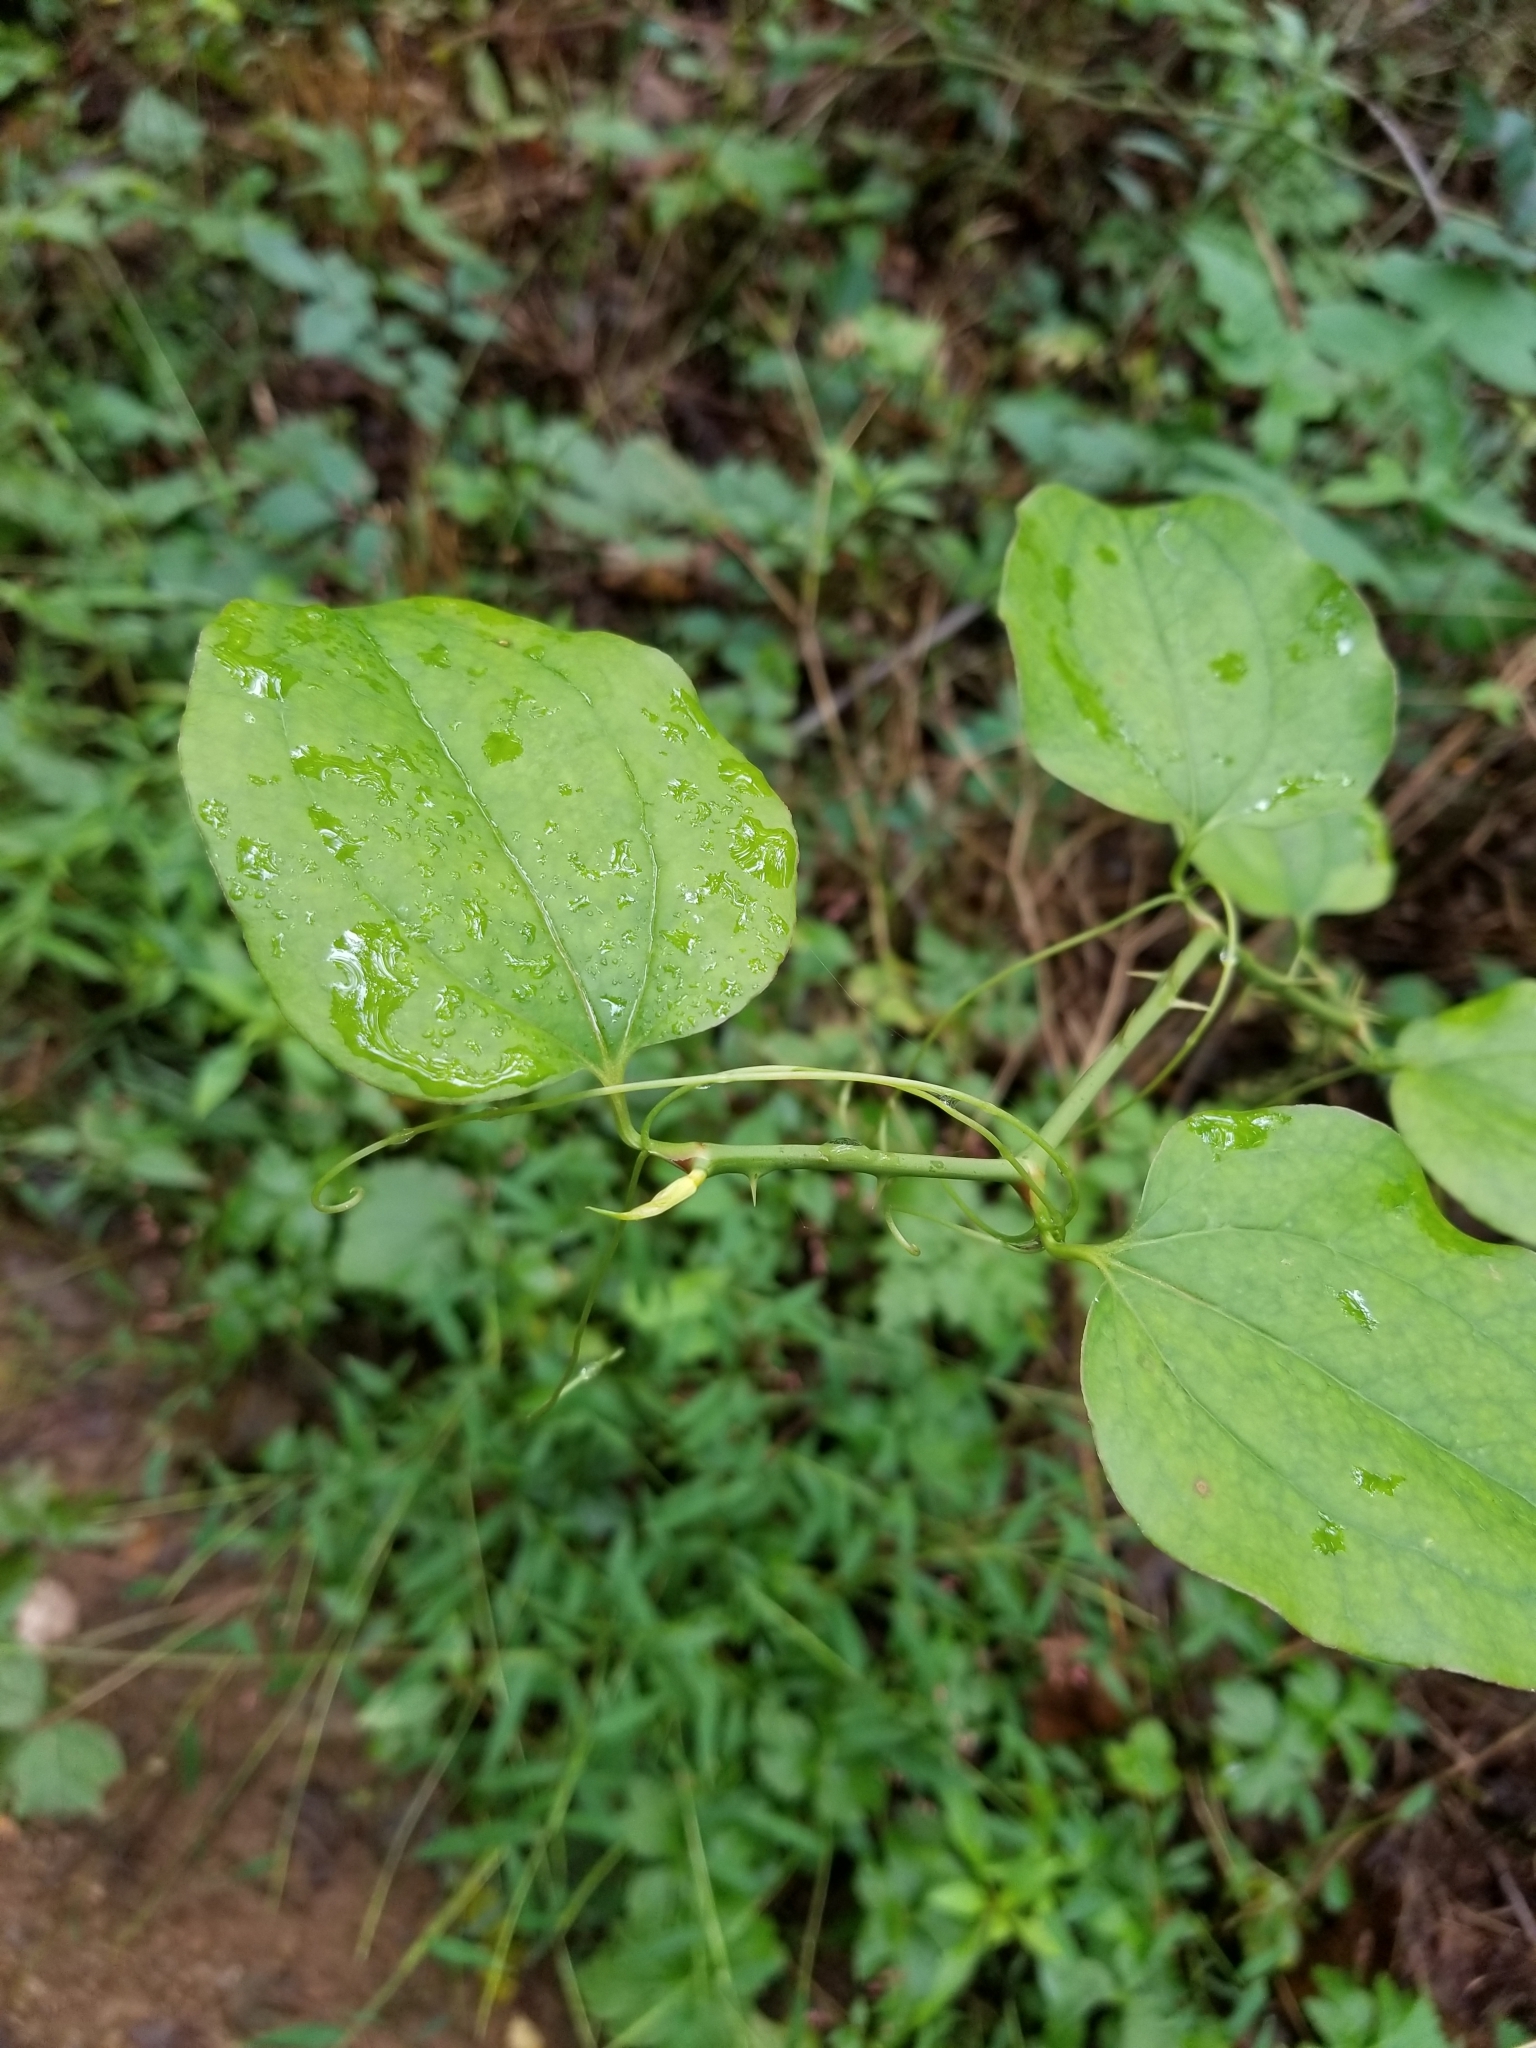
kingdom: Plantae
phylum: Tracheophyta
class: Liliopsida
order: Liliales
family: Smilacaceae
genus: Smilax
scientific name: Smilax rotundifolia
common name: Bullbriar
